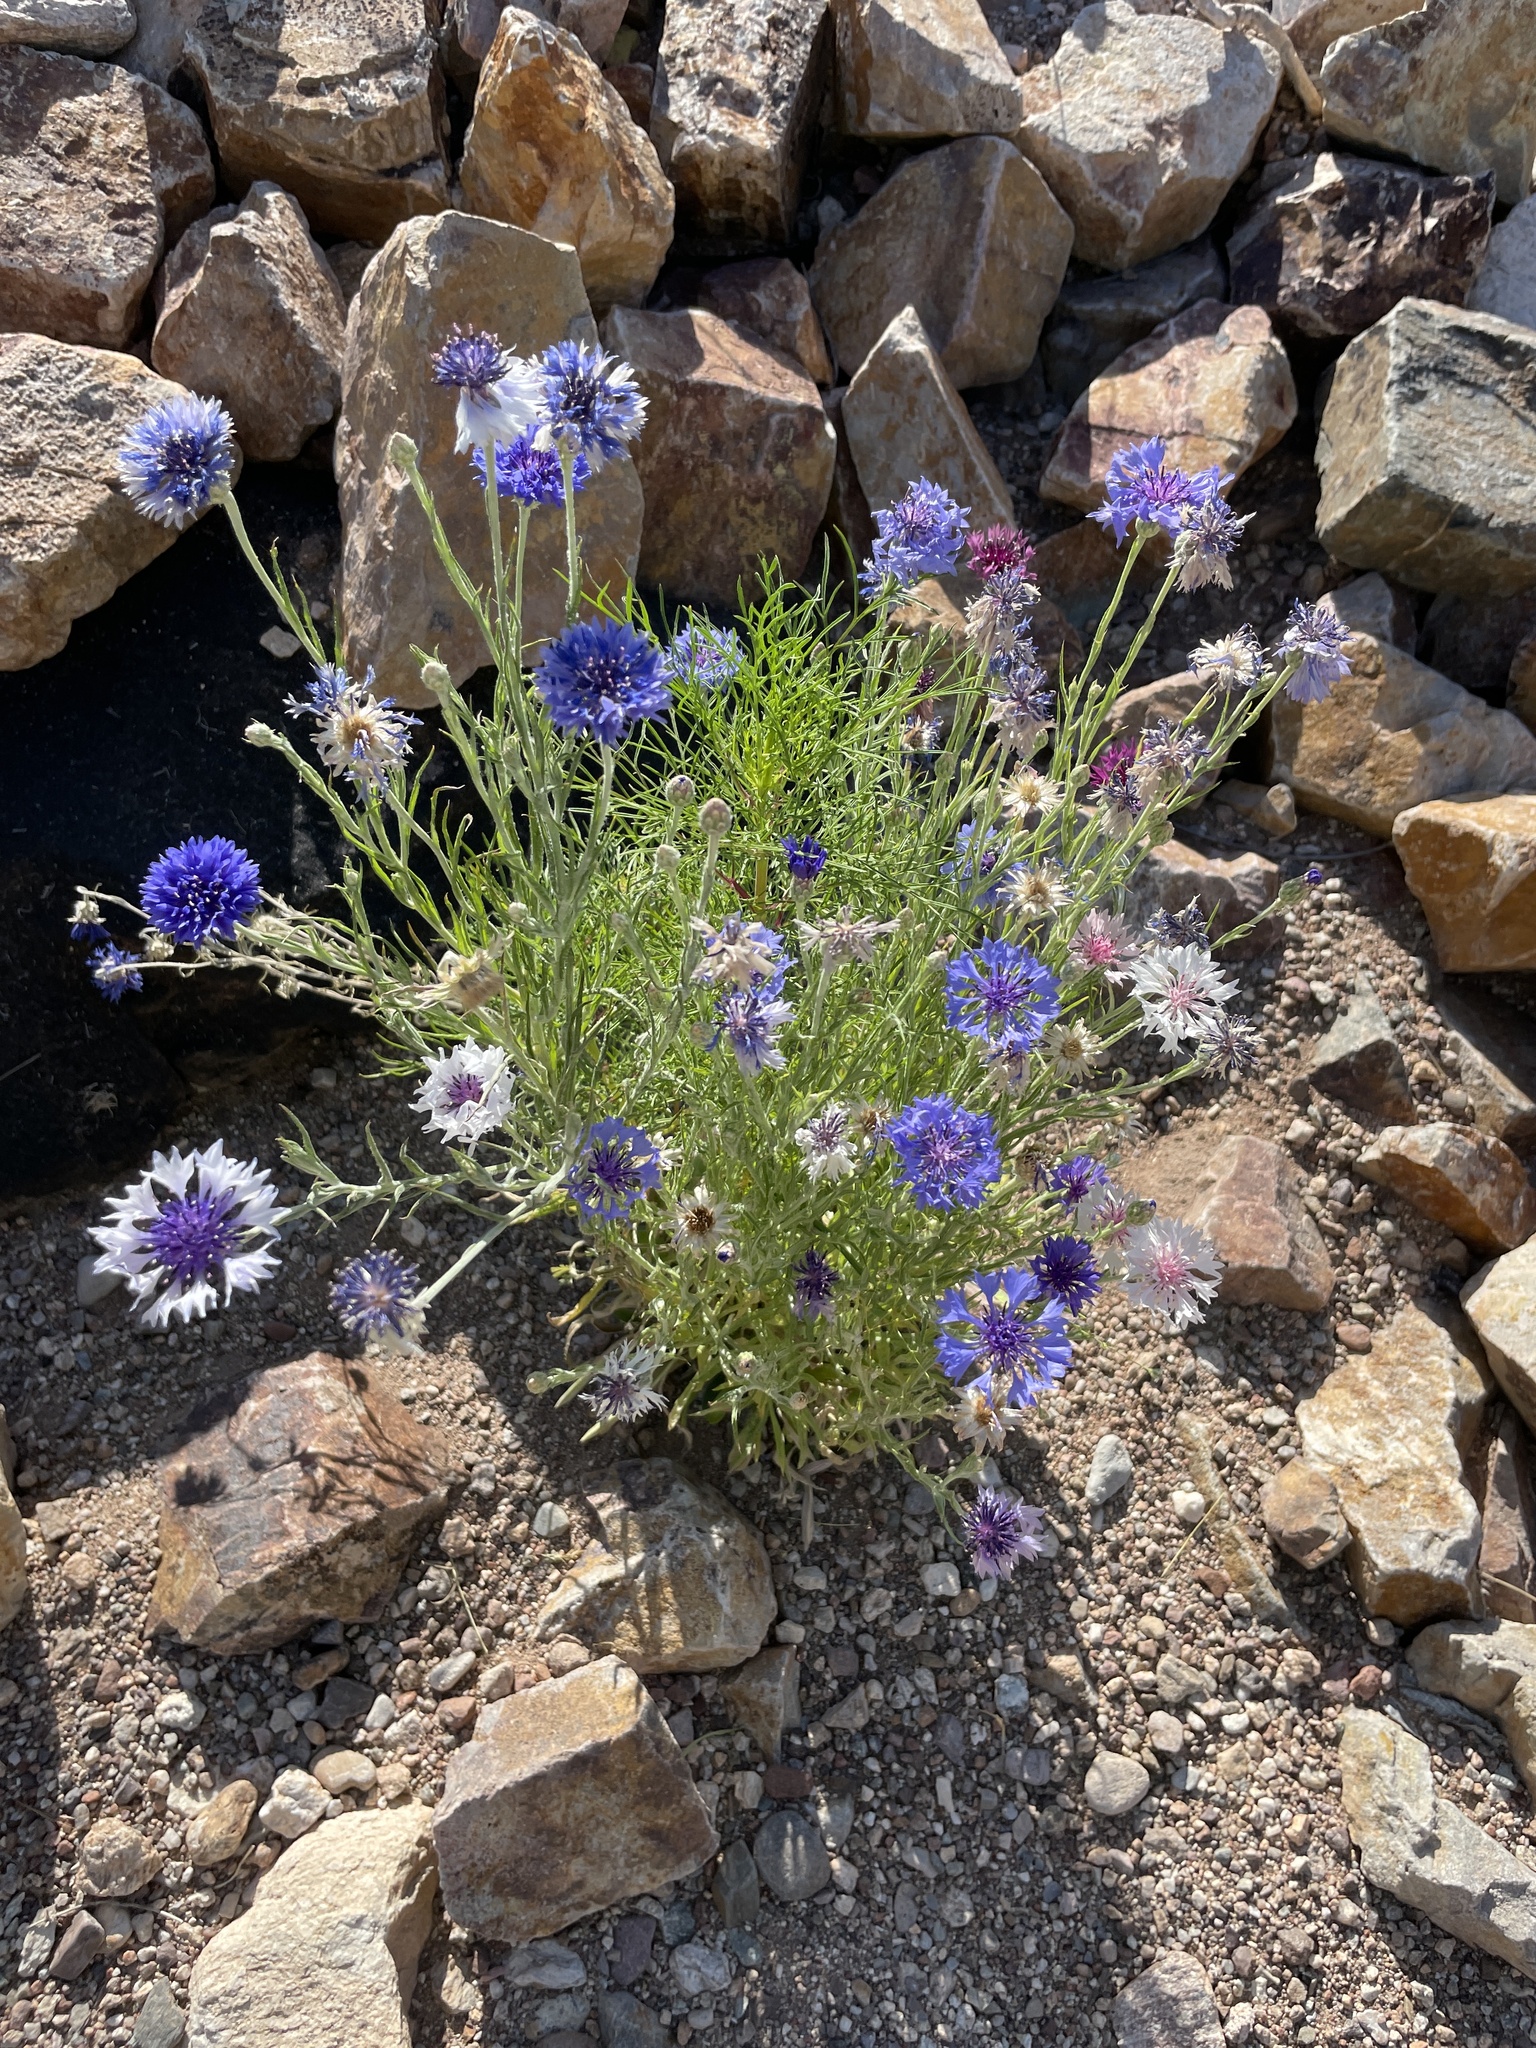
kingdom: Plantae
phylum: Tracheophyta
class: Magnoliopsida
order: Asterales
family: Asteraceae
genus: Centaurea
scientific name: Centaurea cyanus
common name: Cornflower
